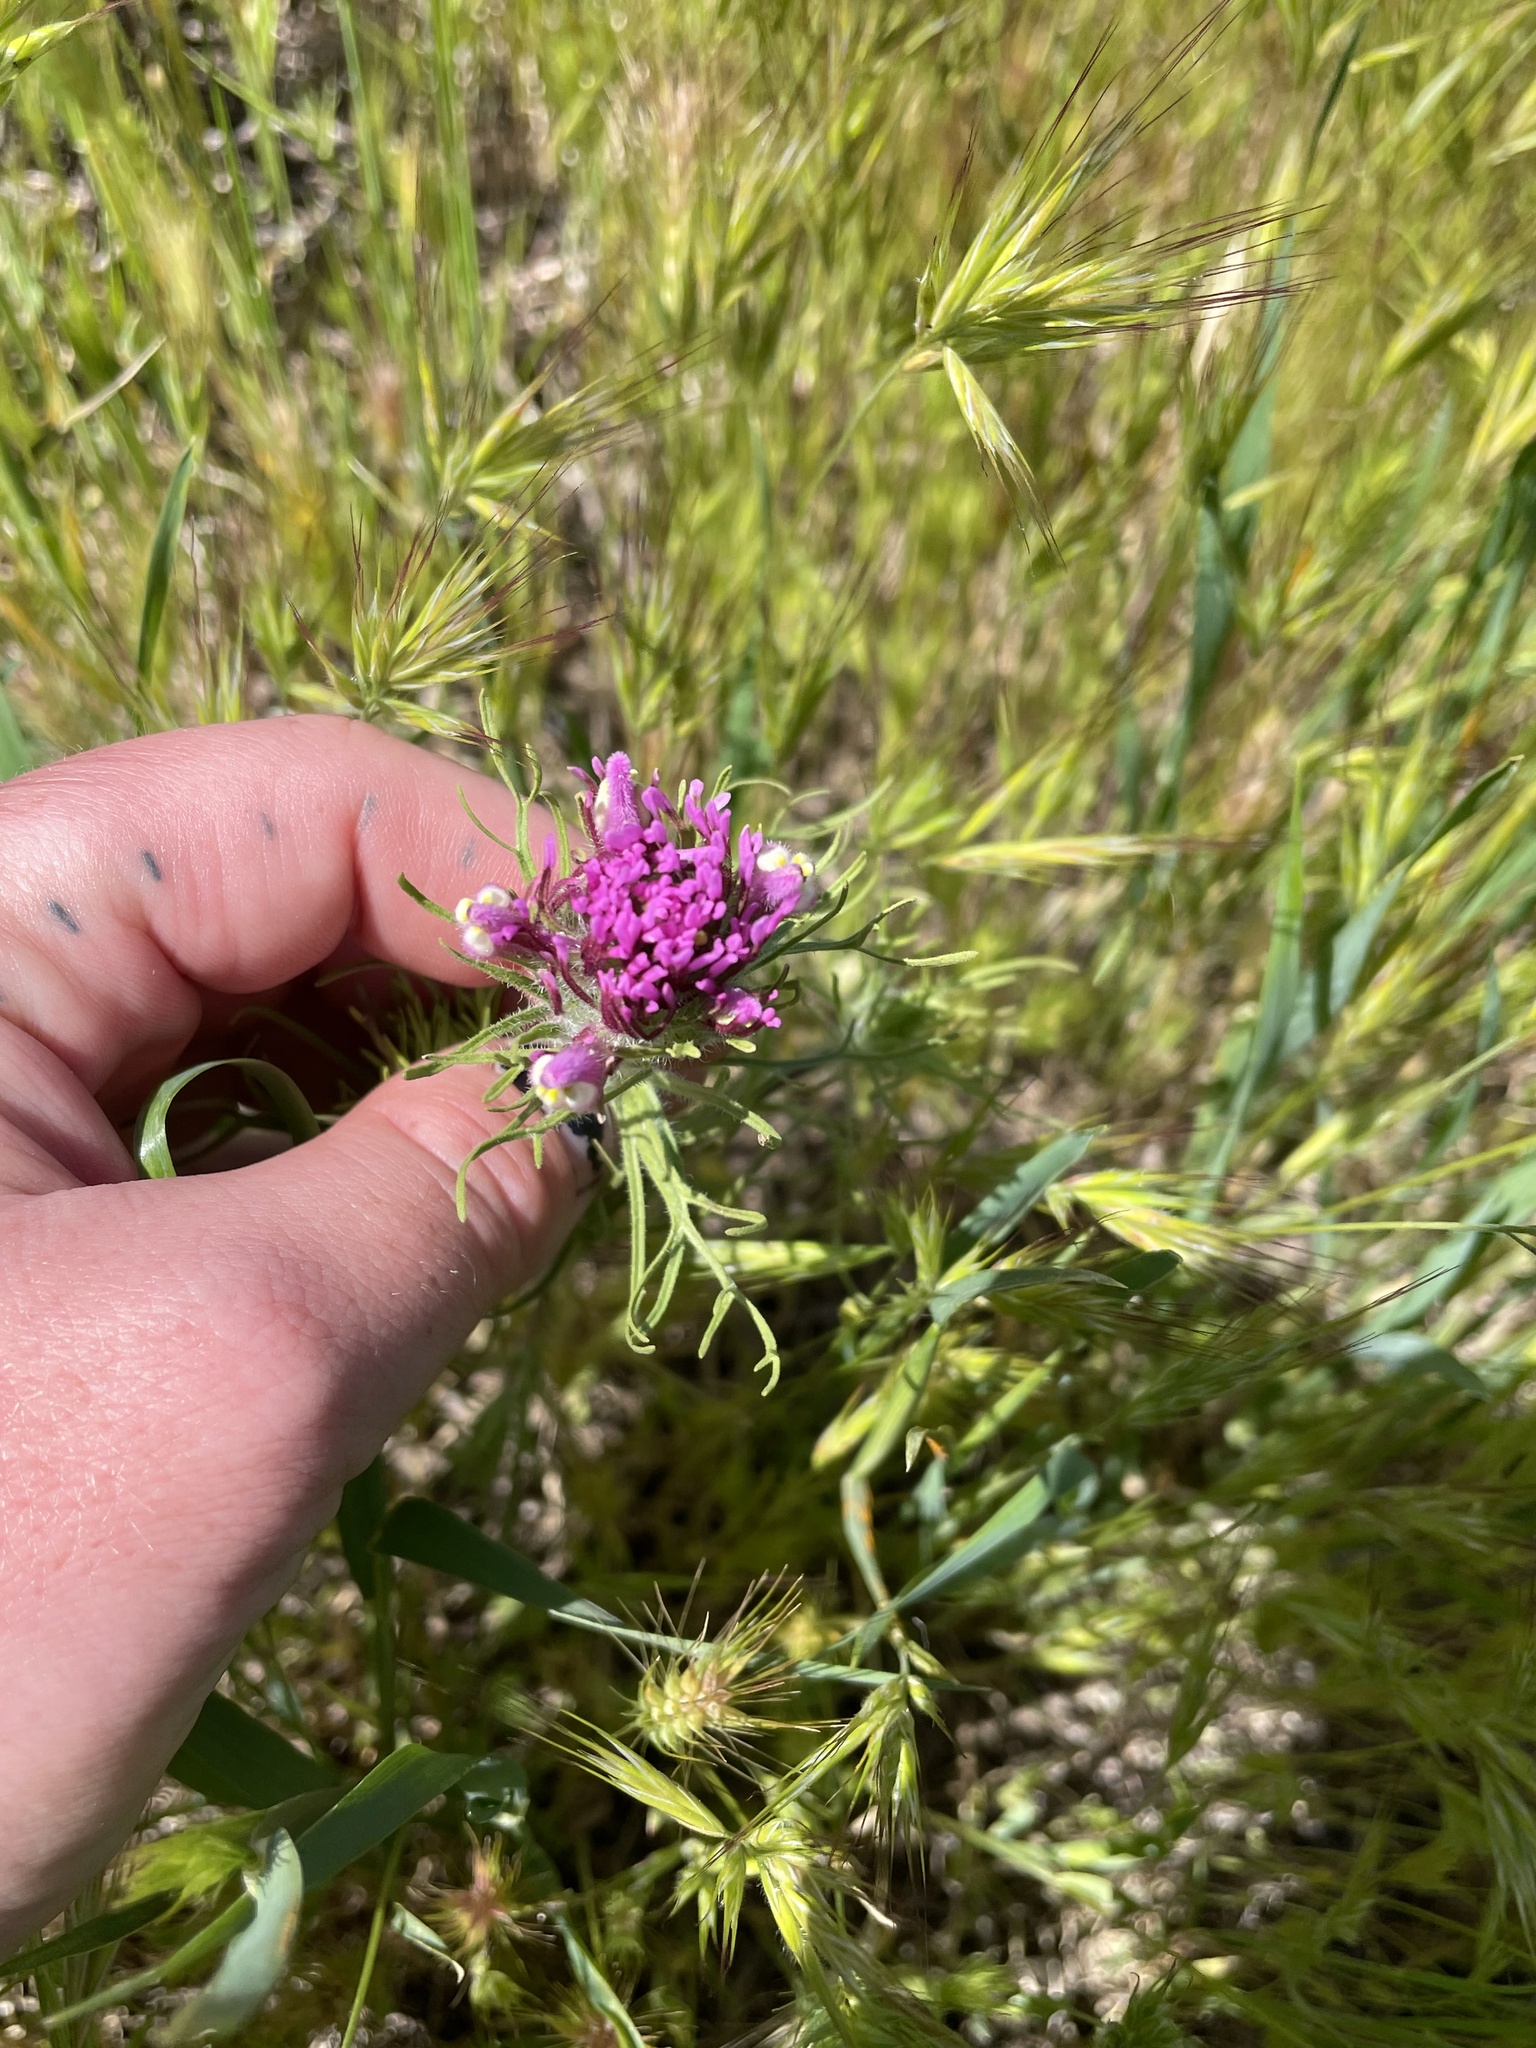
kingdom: Plantae
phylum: Tracheophyta
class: Magnoliopsida
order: Lamiales
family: Orobanchaceae
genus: Castilleja
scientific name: Castilleja exserta
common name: Purple owl-clover
